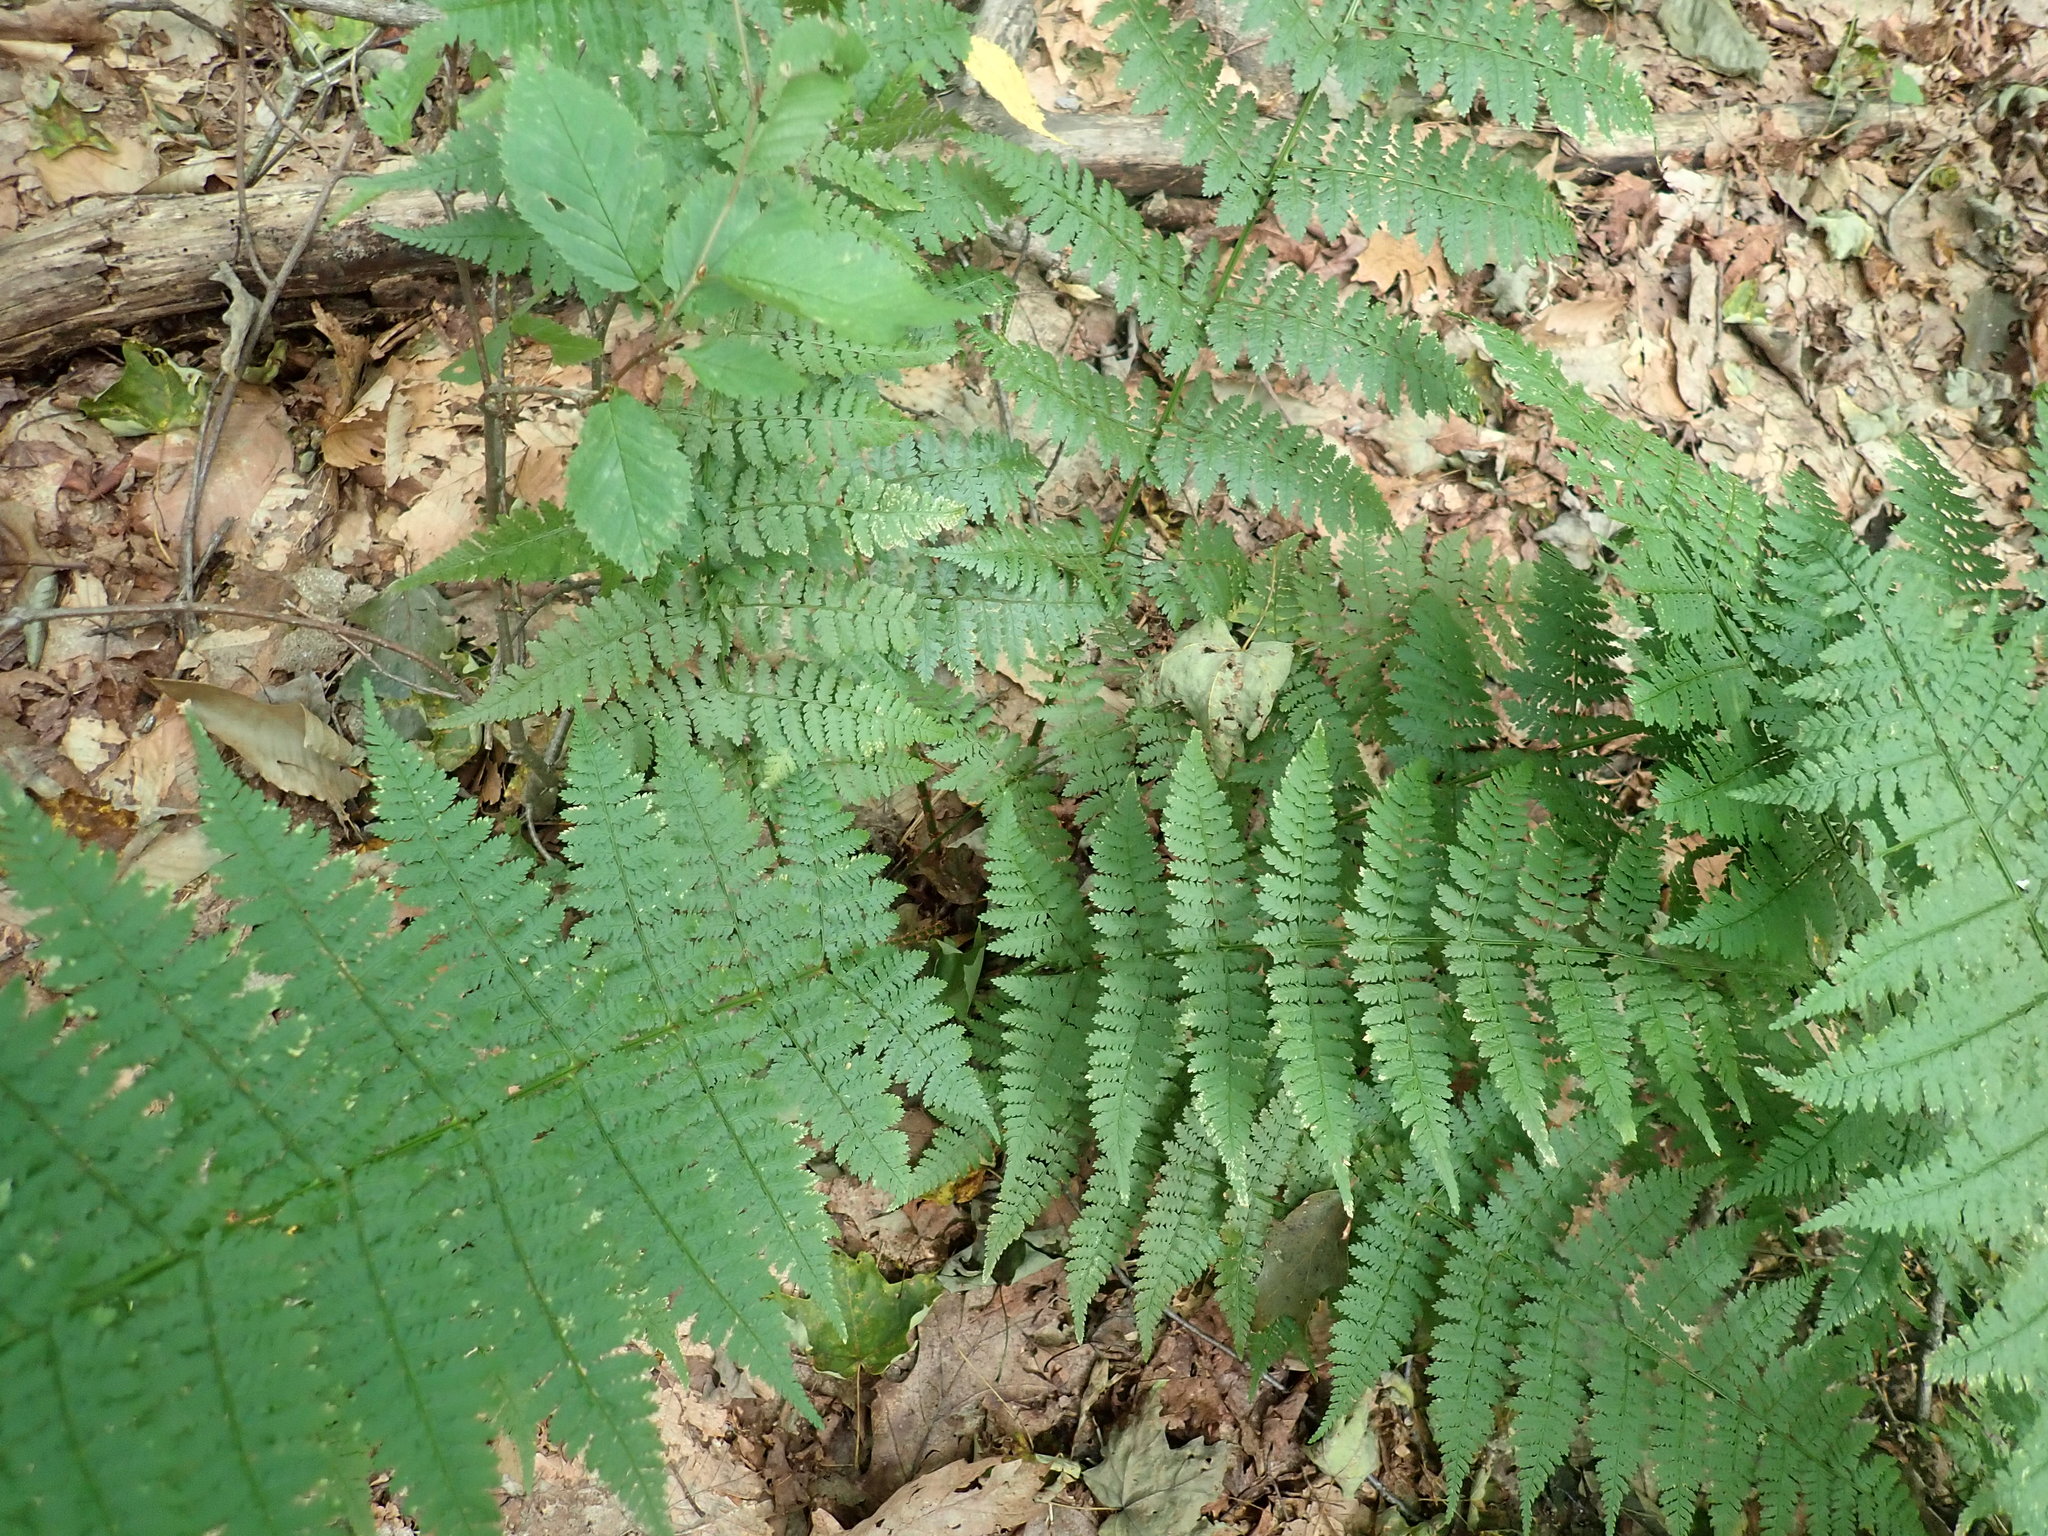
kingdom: Plantae
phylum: Tracheophyta
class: Polypodiopsida
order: Polypodiales
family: Dryopteridaceae
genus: Dryopteris
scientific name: Dryopteris intermedia
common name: Evergreen wood fern
